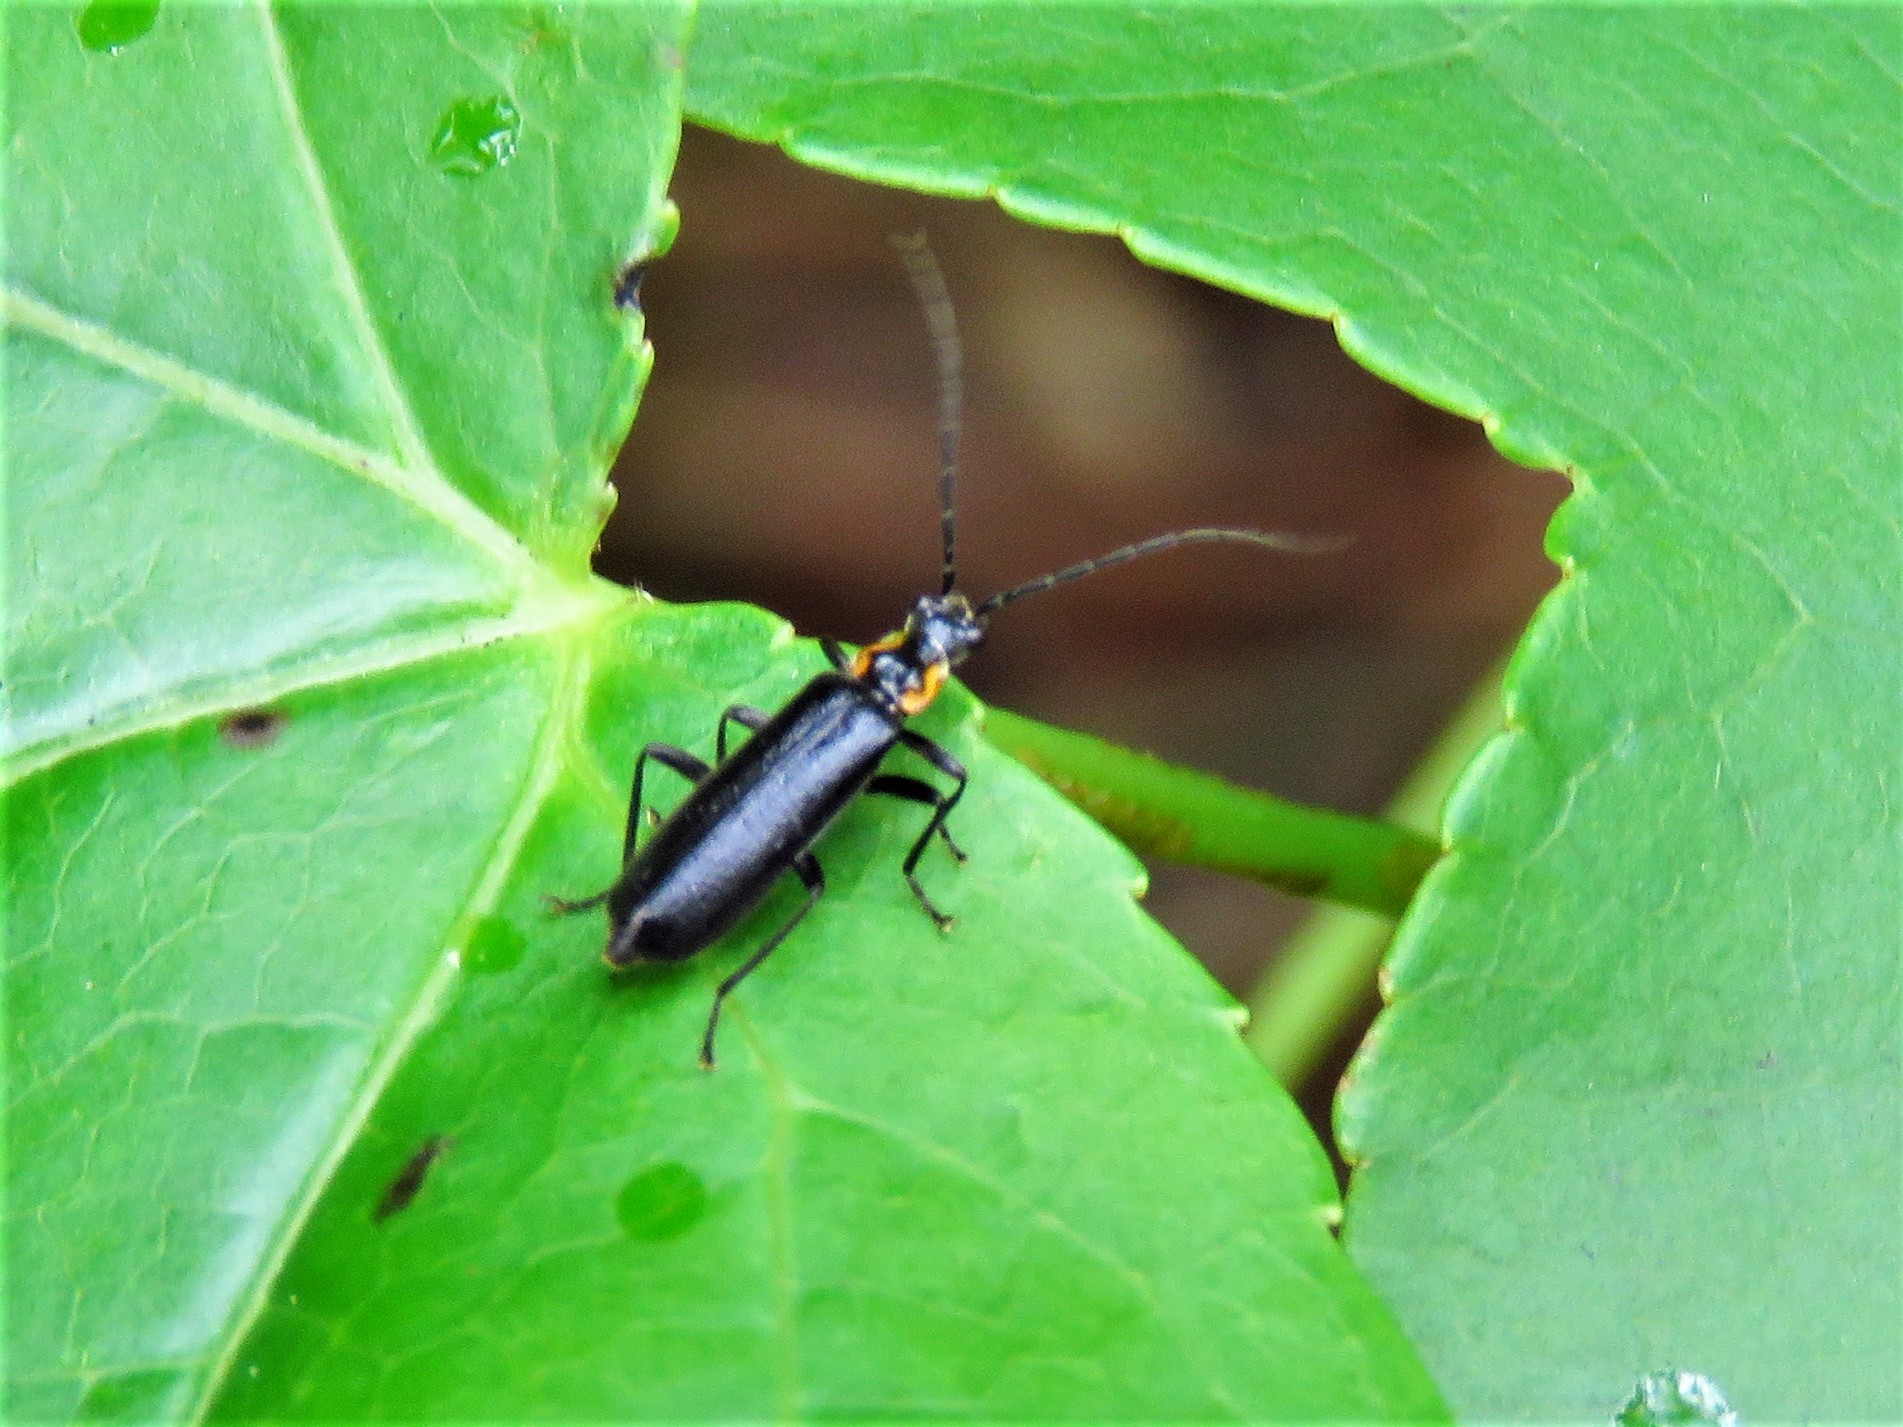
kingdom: Animalia
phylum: Arthropoda
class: Insecta
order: Coleoptera
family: Cantharidae
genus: Podabrus
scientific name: Podabrus rugosulus
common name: Wrinkled soldier beetle
